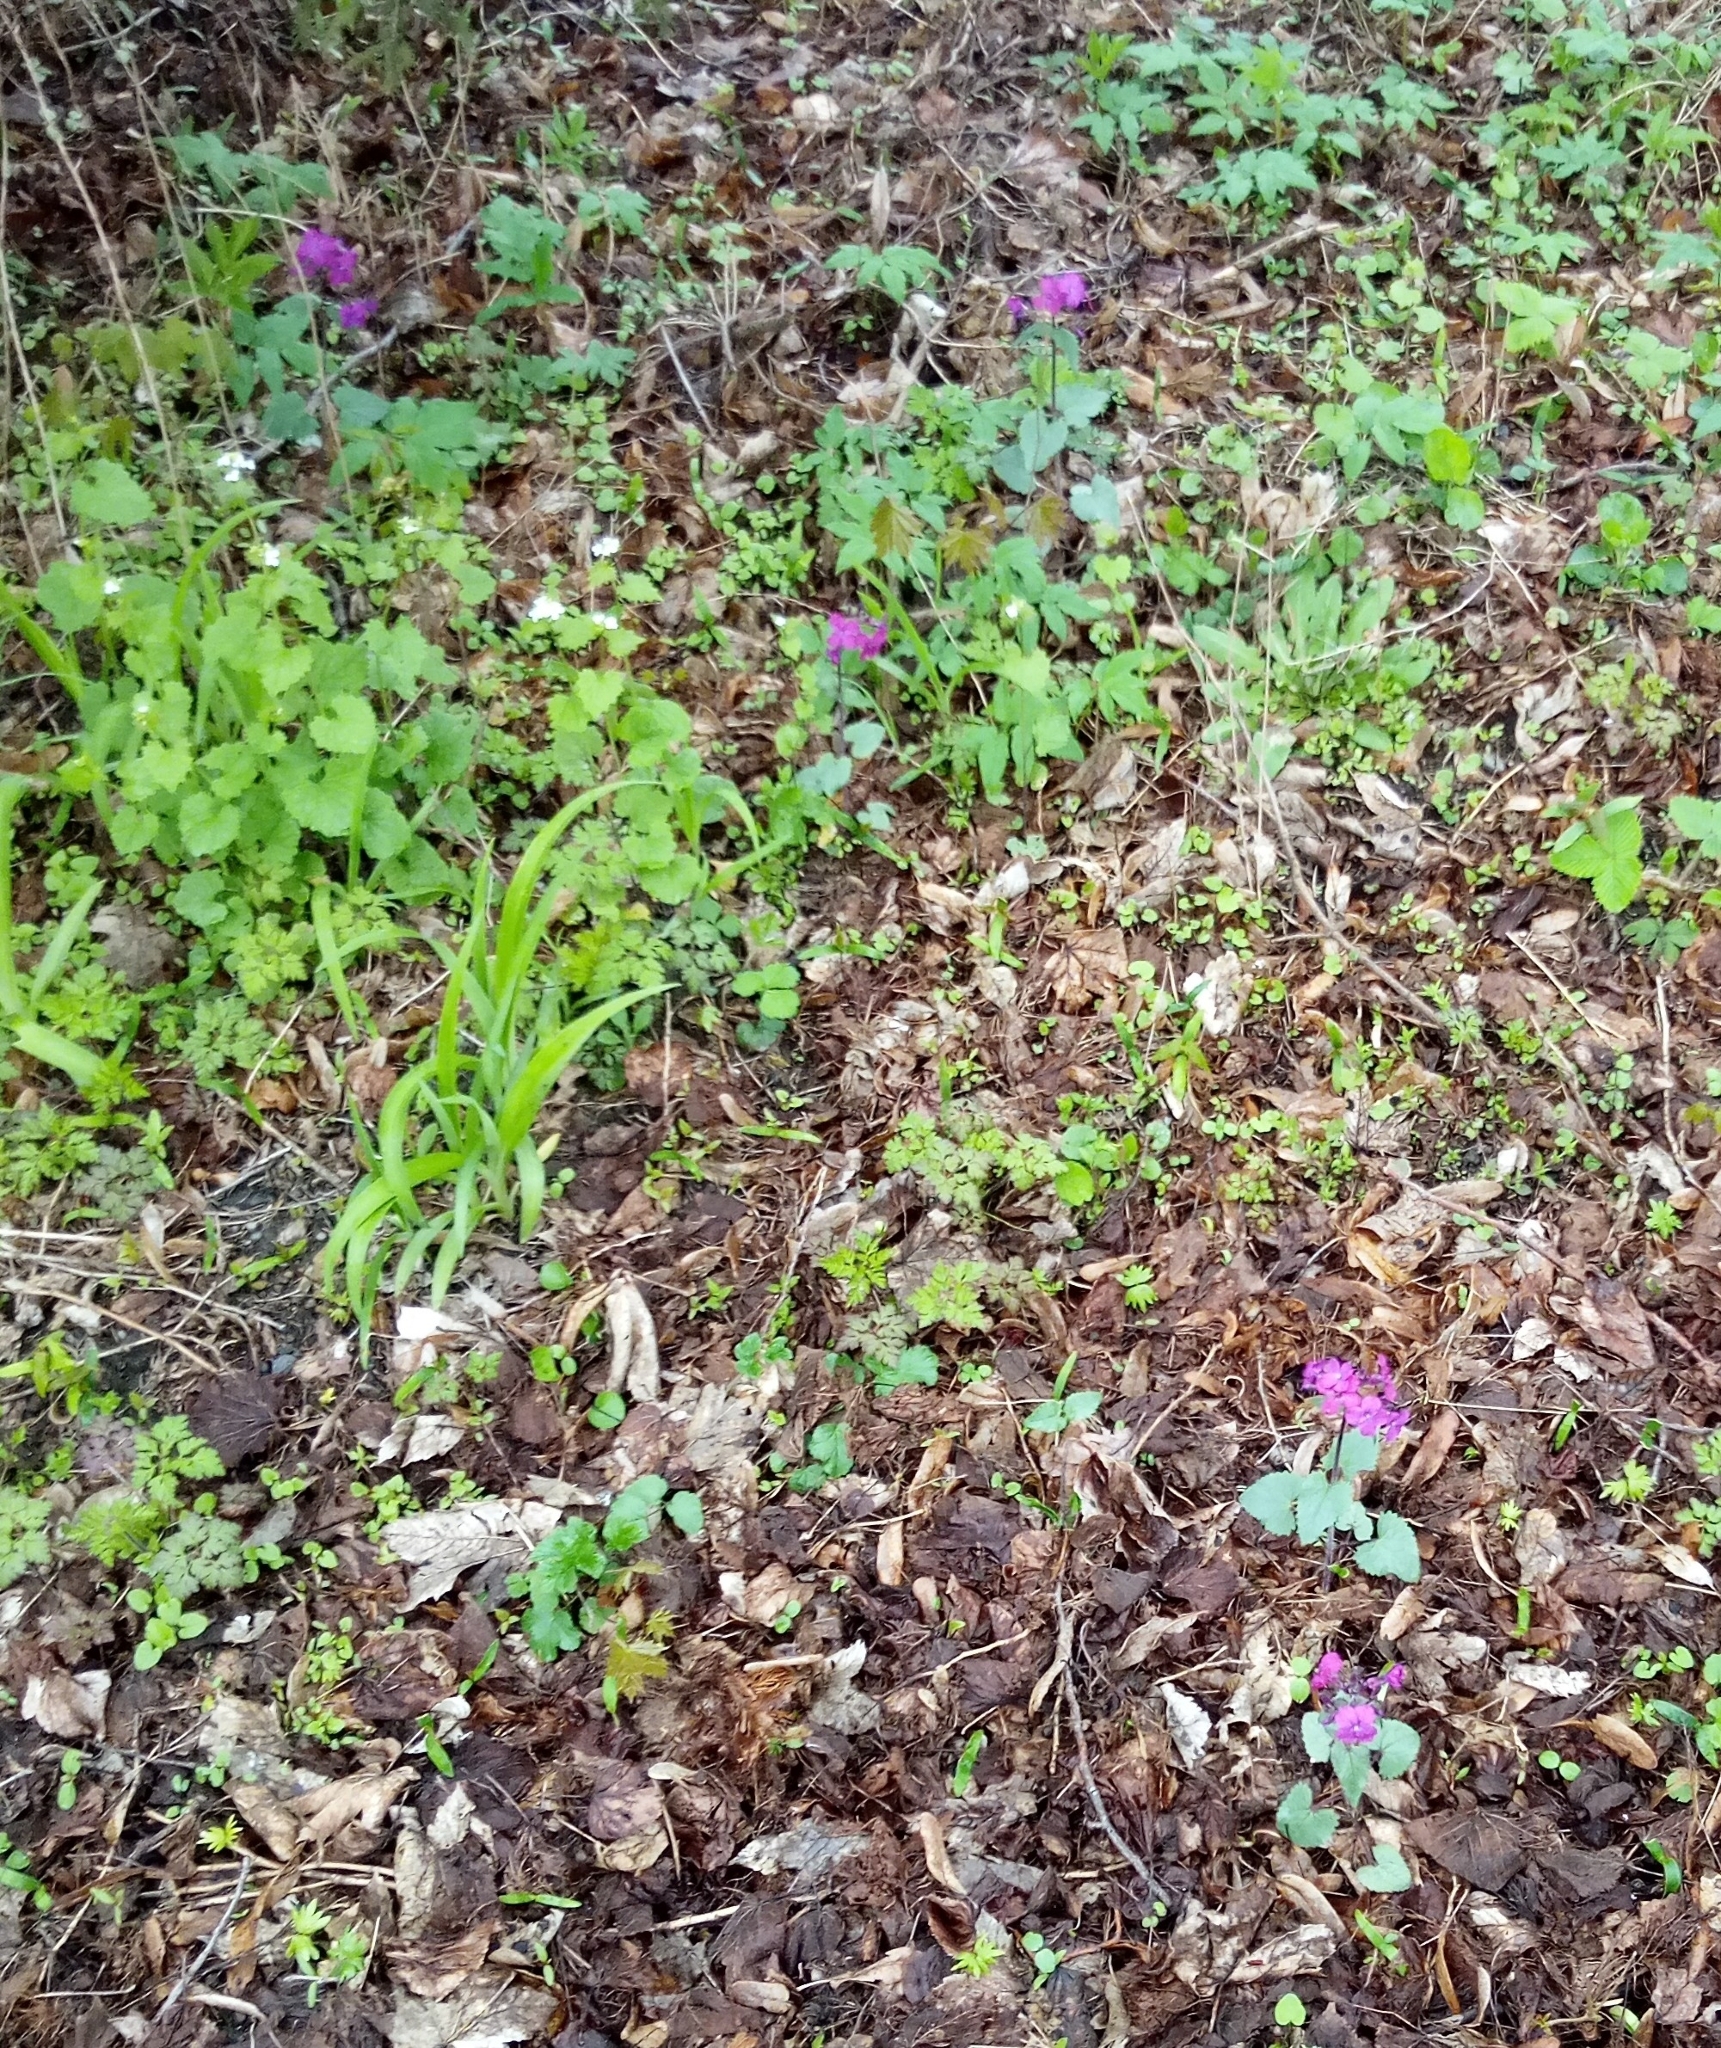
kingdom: Plantae
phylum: Tracheophyta
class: Magnoliopsida
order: Brassicales
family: Brassicaceae
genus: Lunaria
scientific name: Lunaria annua
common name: Honesty
